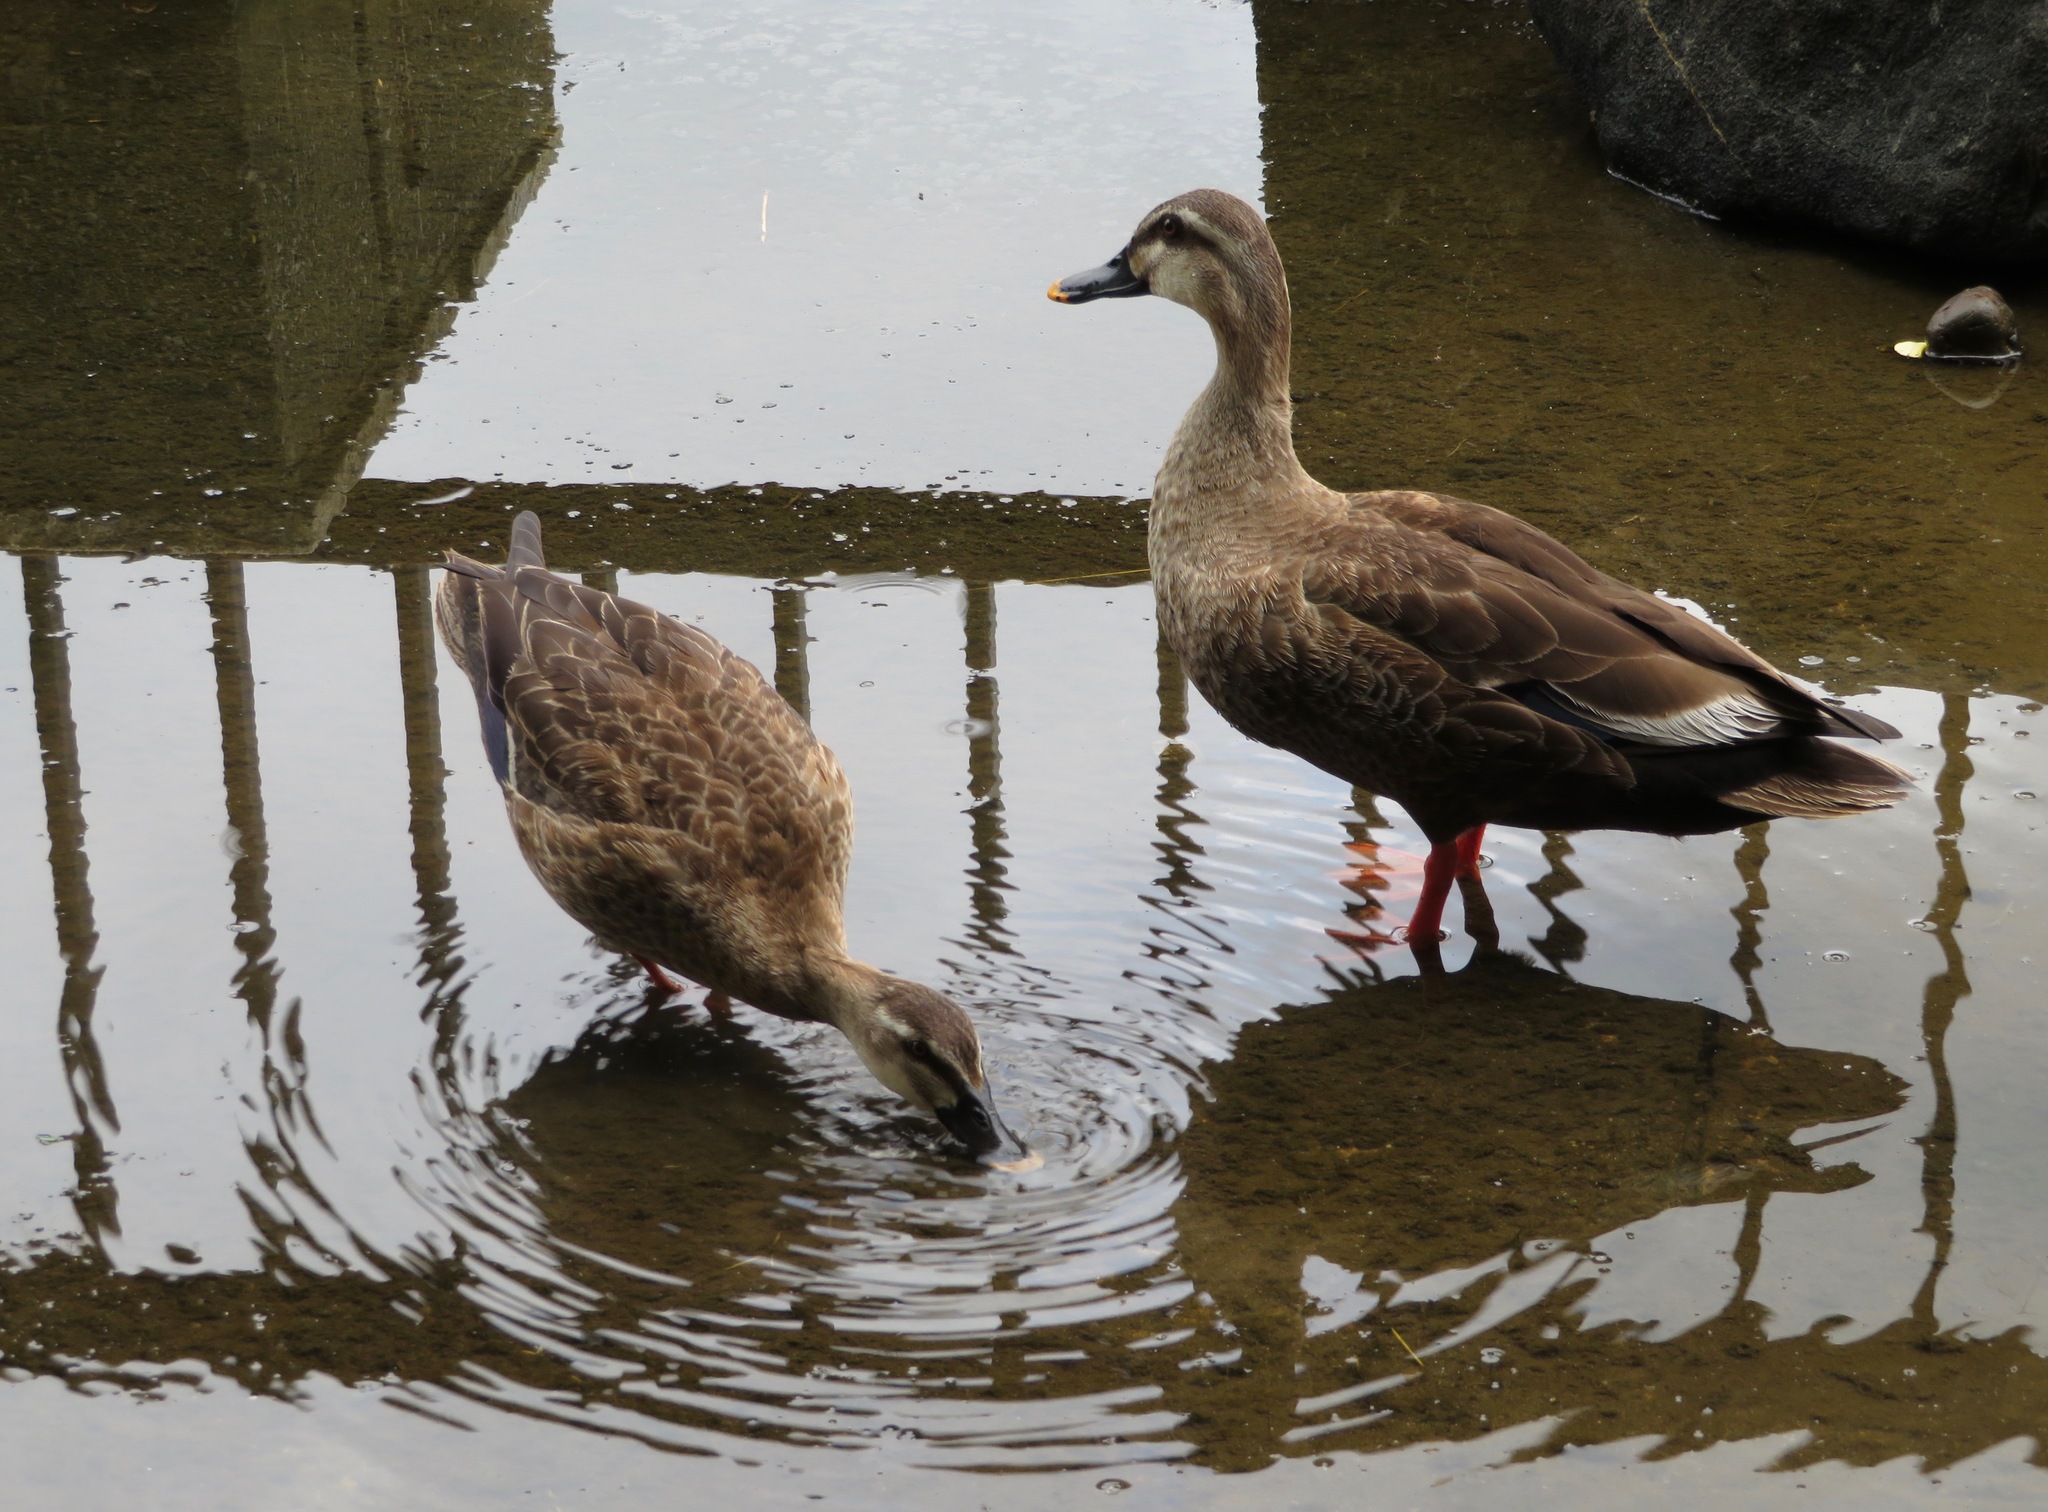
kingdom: Animalia
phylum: Chordata
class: Aves
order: Anseriformes
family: Anatidae
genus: Anas
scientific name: Anas zonorhyncha
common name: Eastern spot-billed duck
